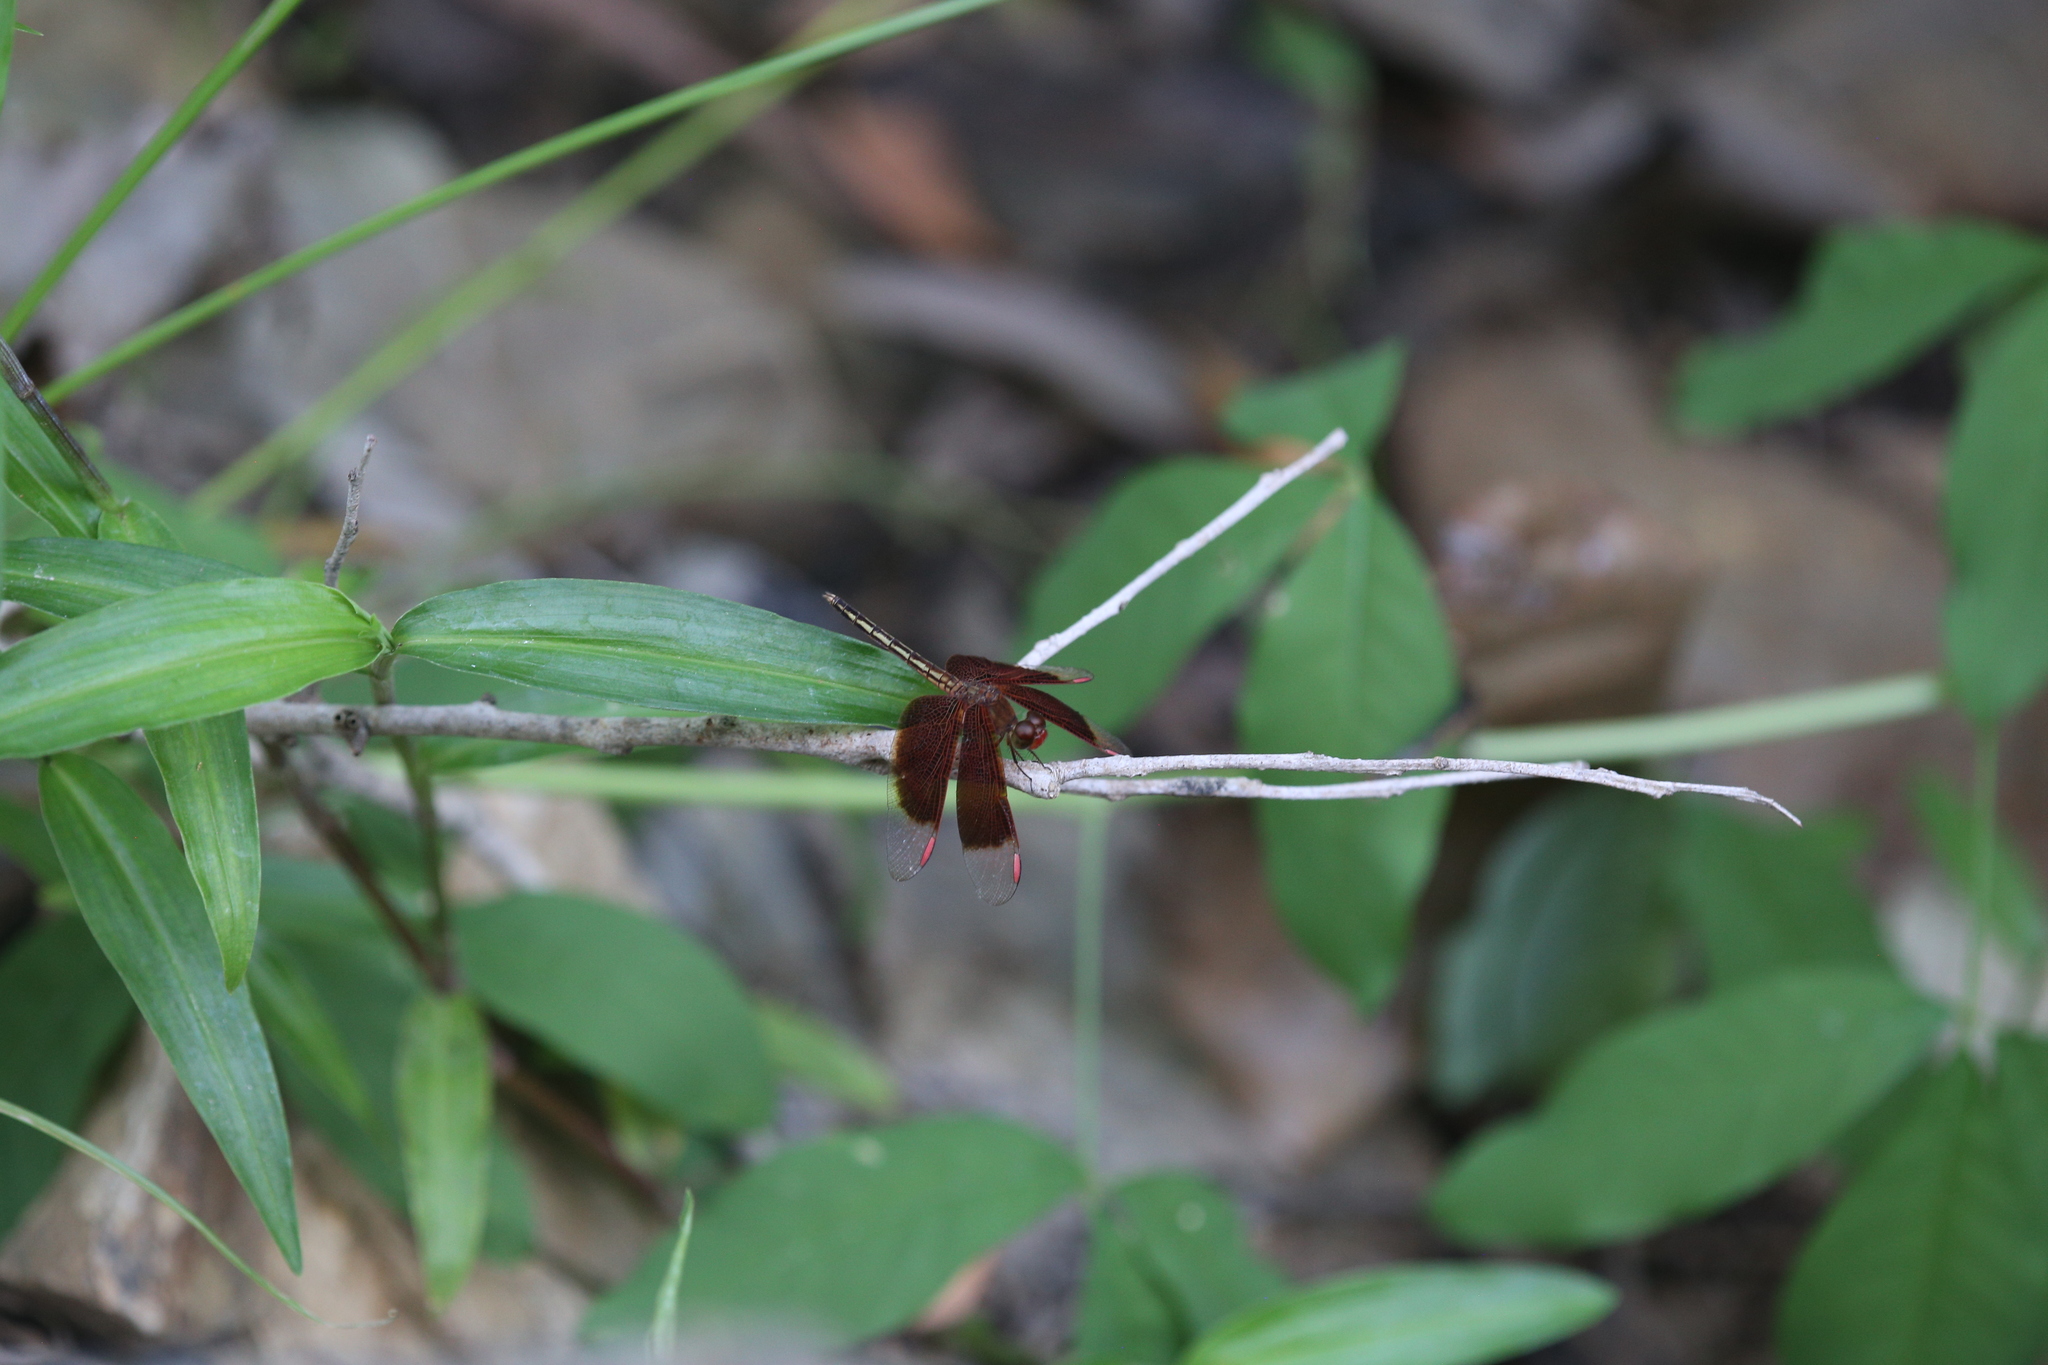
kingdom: Animalia
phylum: Arthropoda
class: Insecta
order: Odonata
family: Libellulidae
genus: Neurothemis
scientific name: Neurothemis stigmatizans
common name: Painted grasshawk
